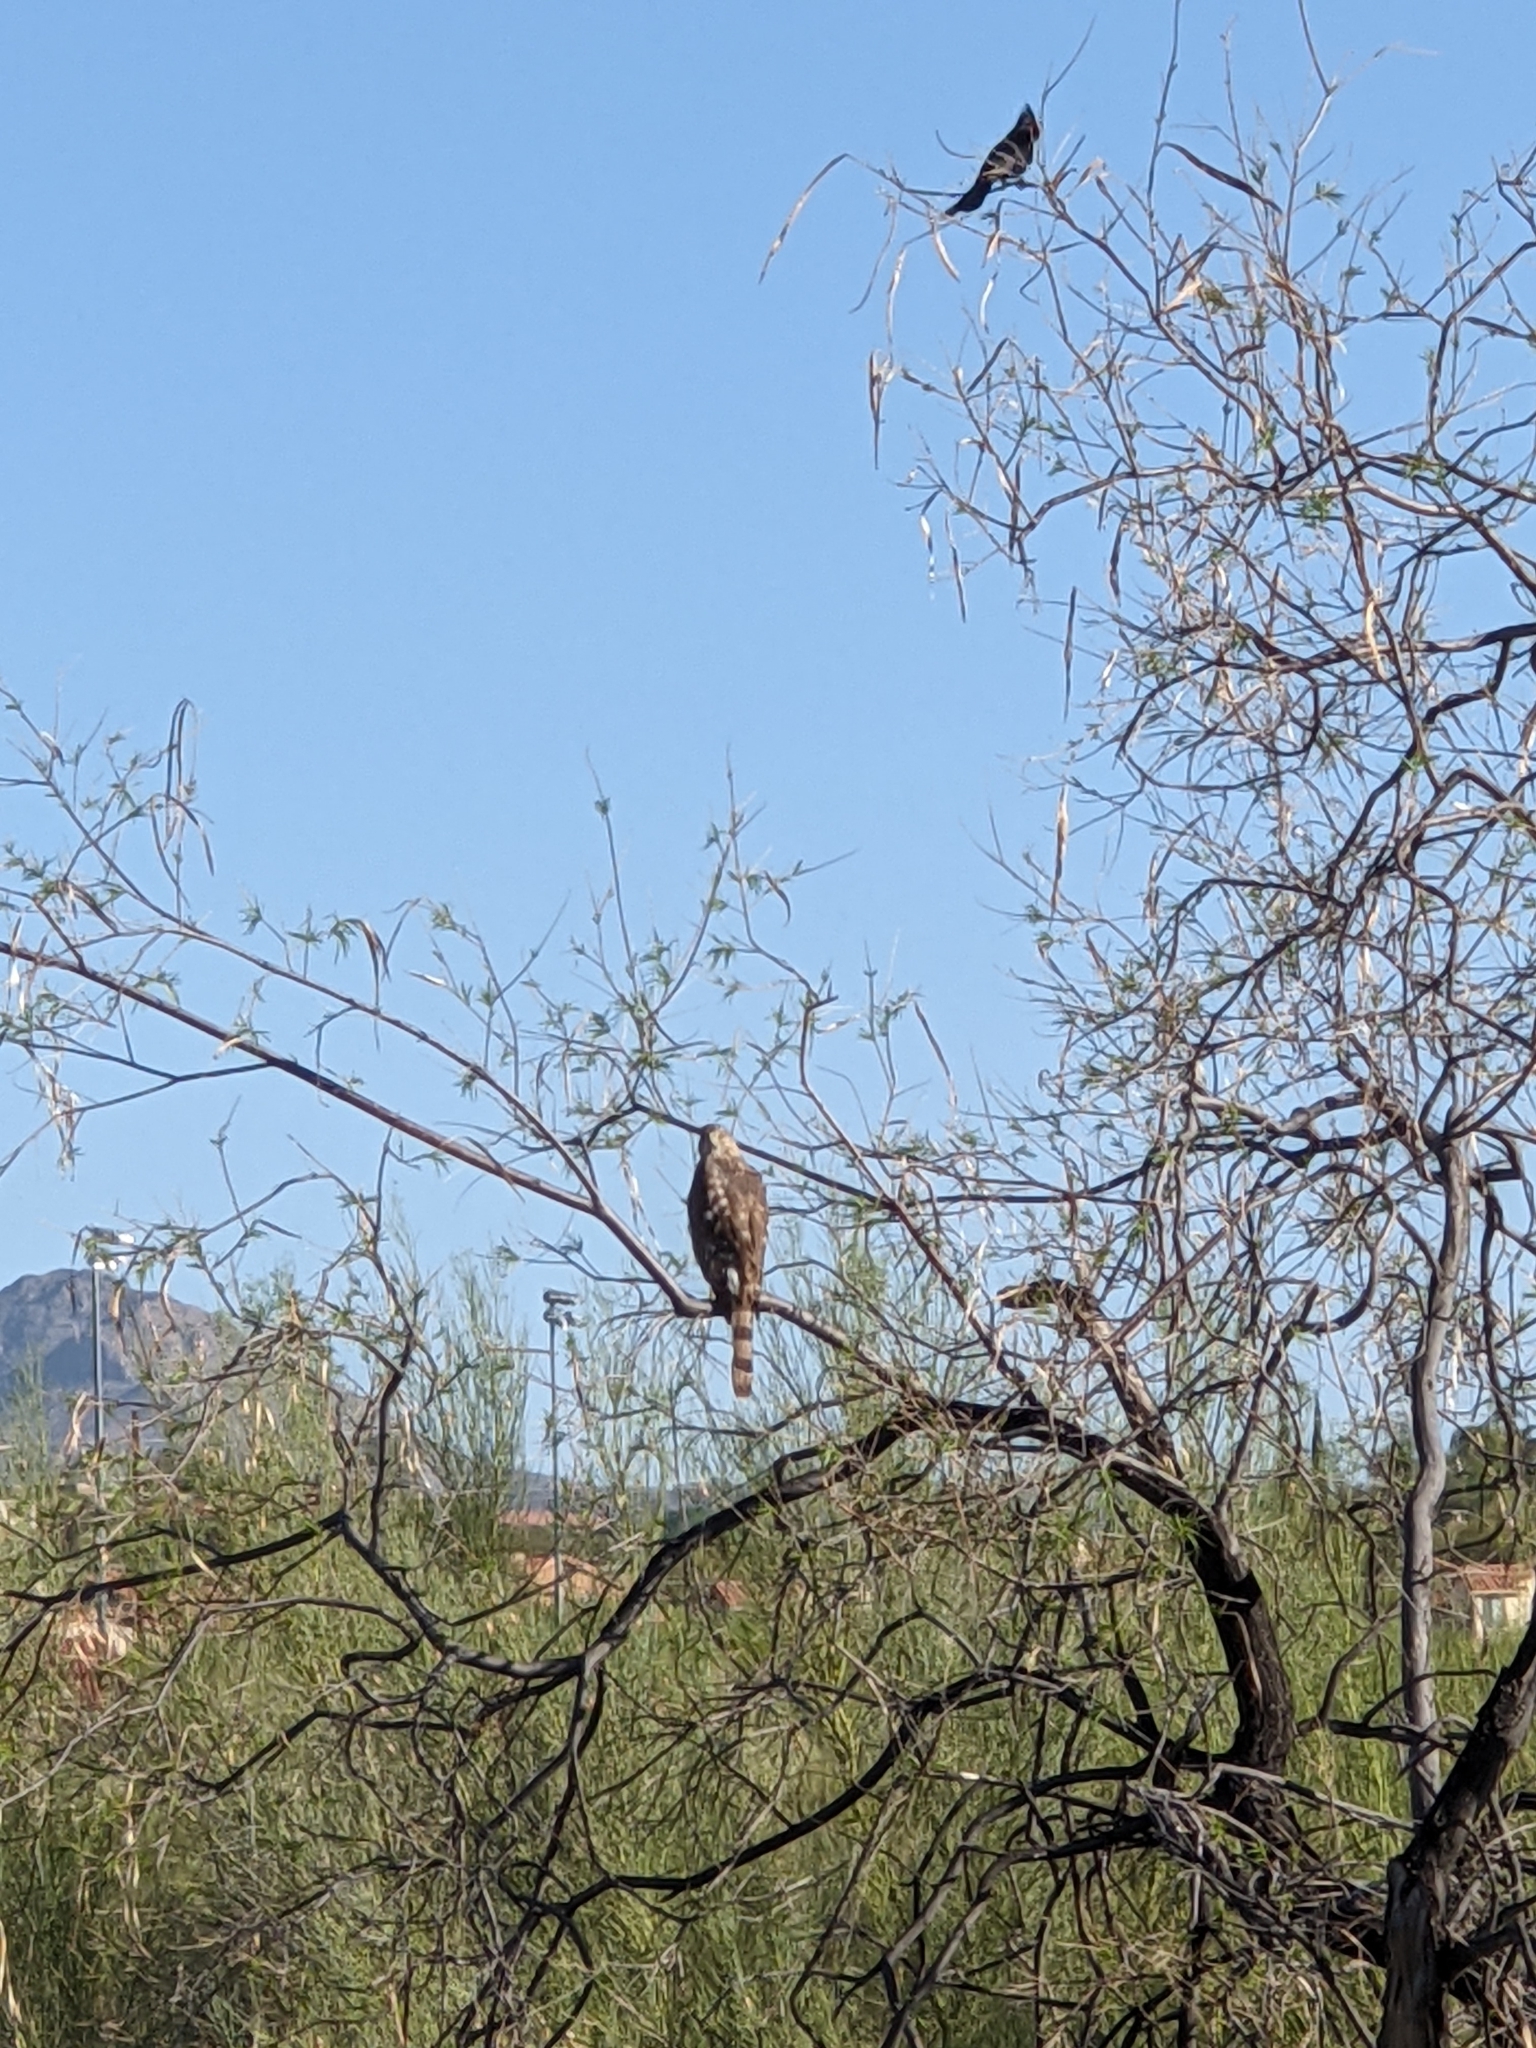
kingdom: Animalia
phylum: Chordata
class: Aves
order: Accipitriformes
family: Accipitridae
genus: Accipiter
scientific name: Accipiter cooperii
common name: Cooper's hawk
